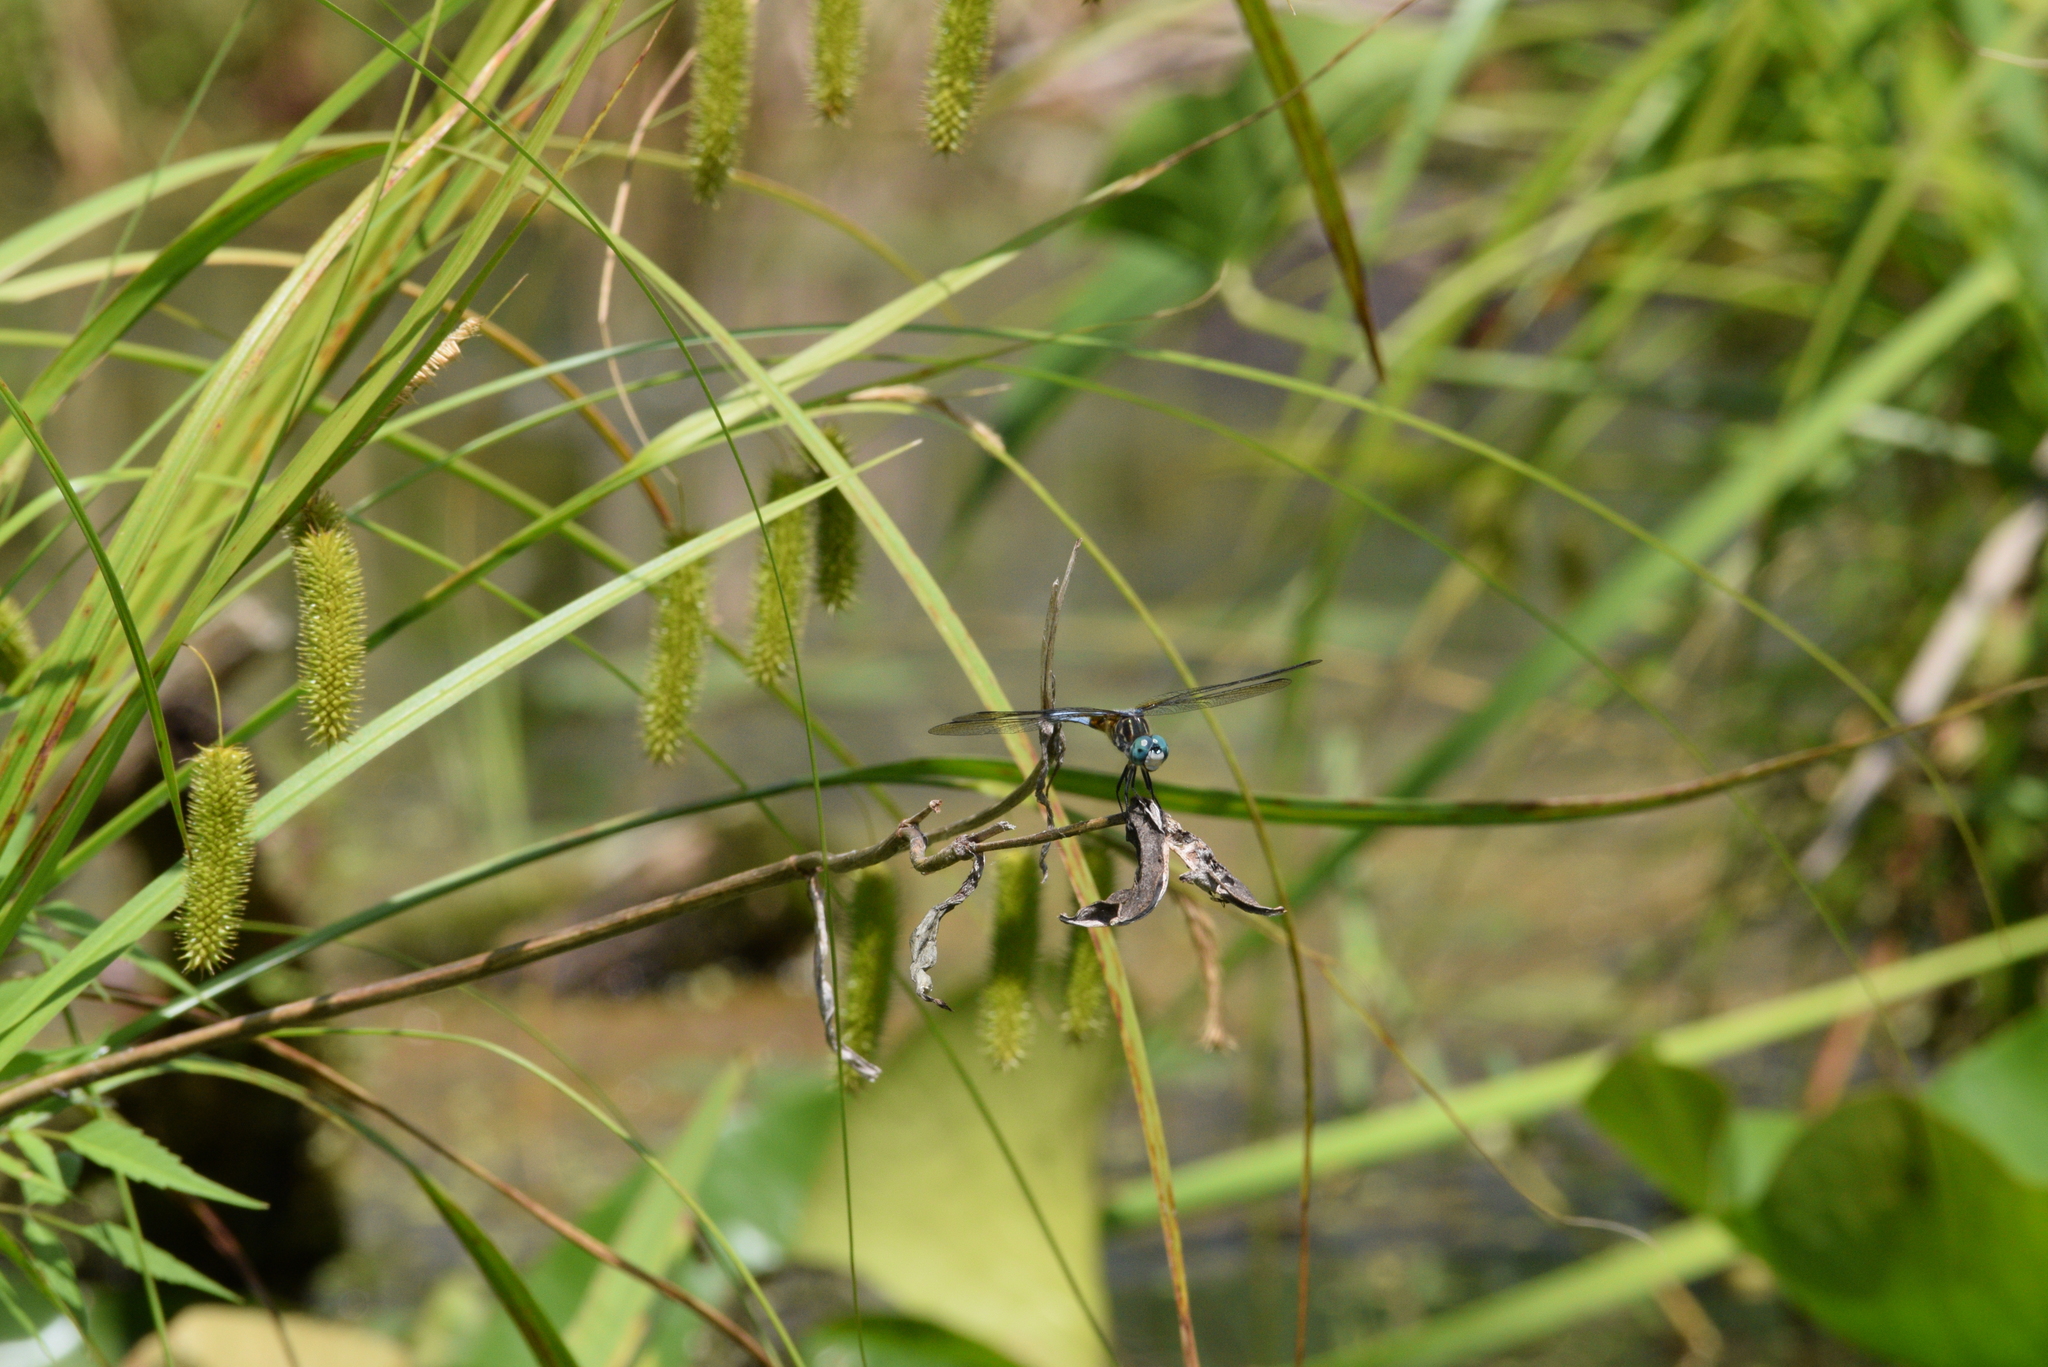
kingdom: Animalia
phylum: Arthropoda
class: Insecta
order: Odonata
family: Libellulidae
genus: Pachydiplax
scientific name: Pachydiplax longipennis
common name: Blue dasher
